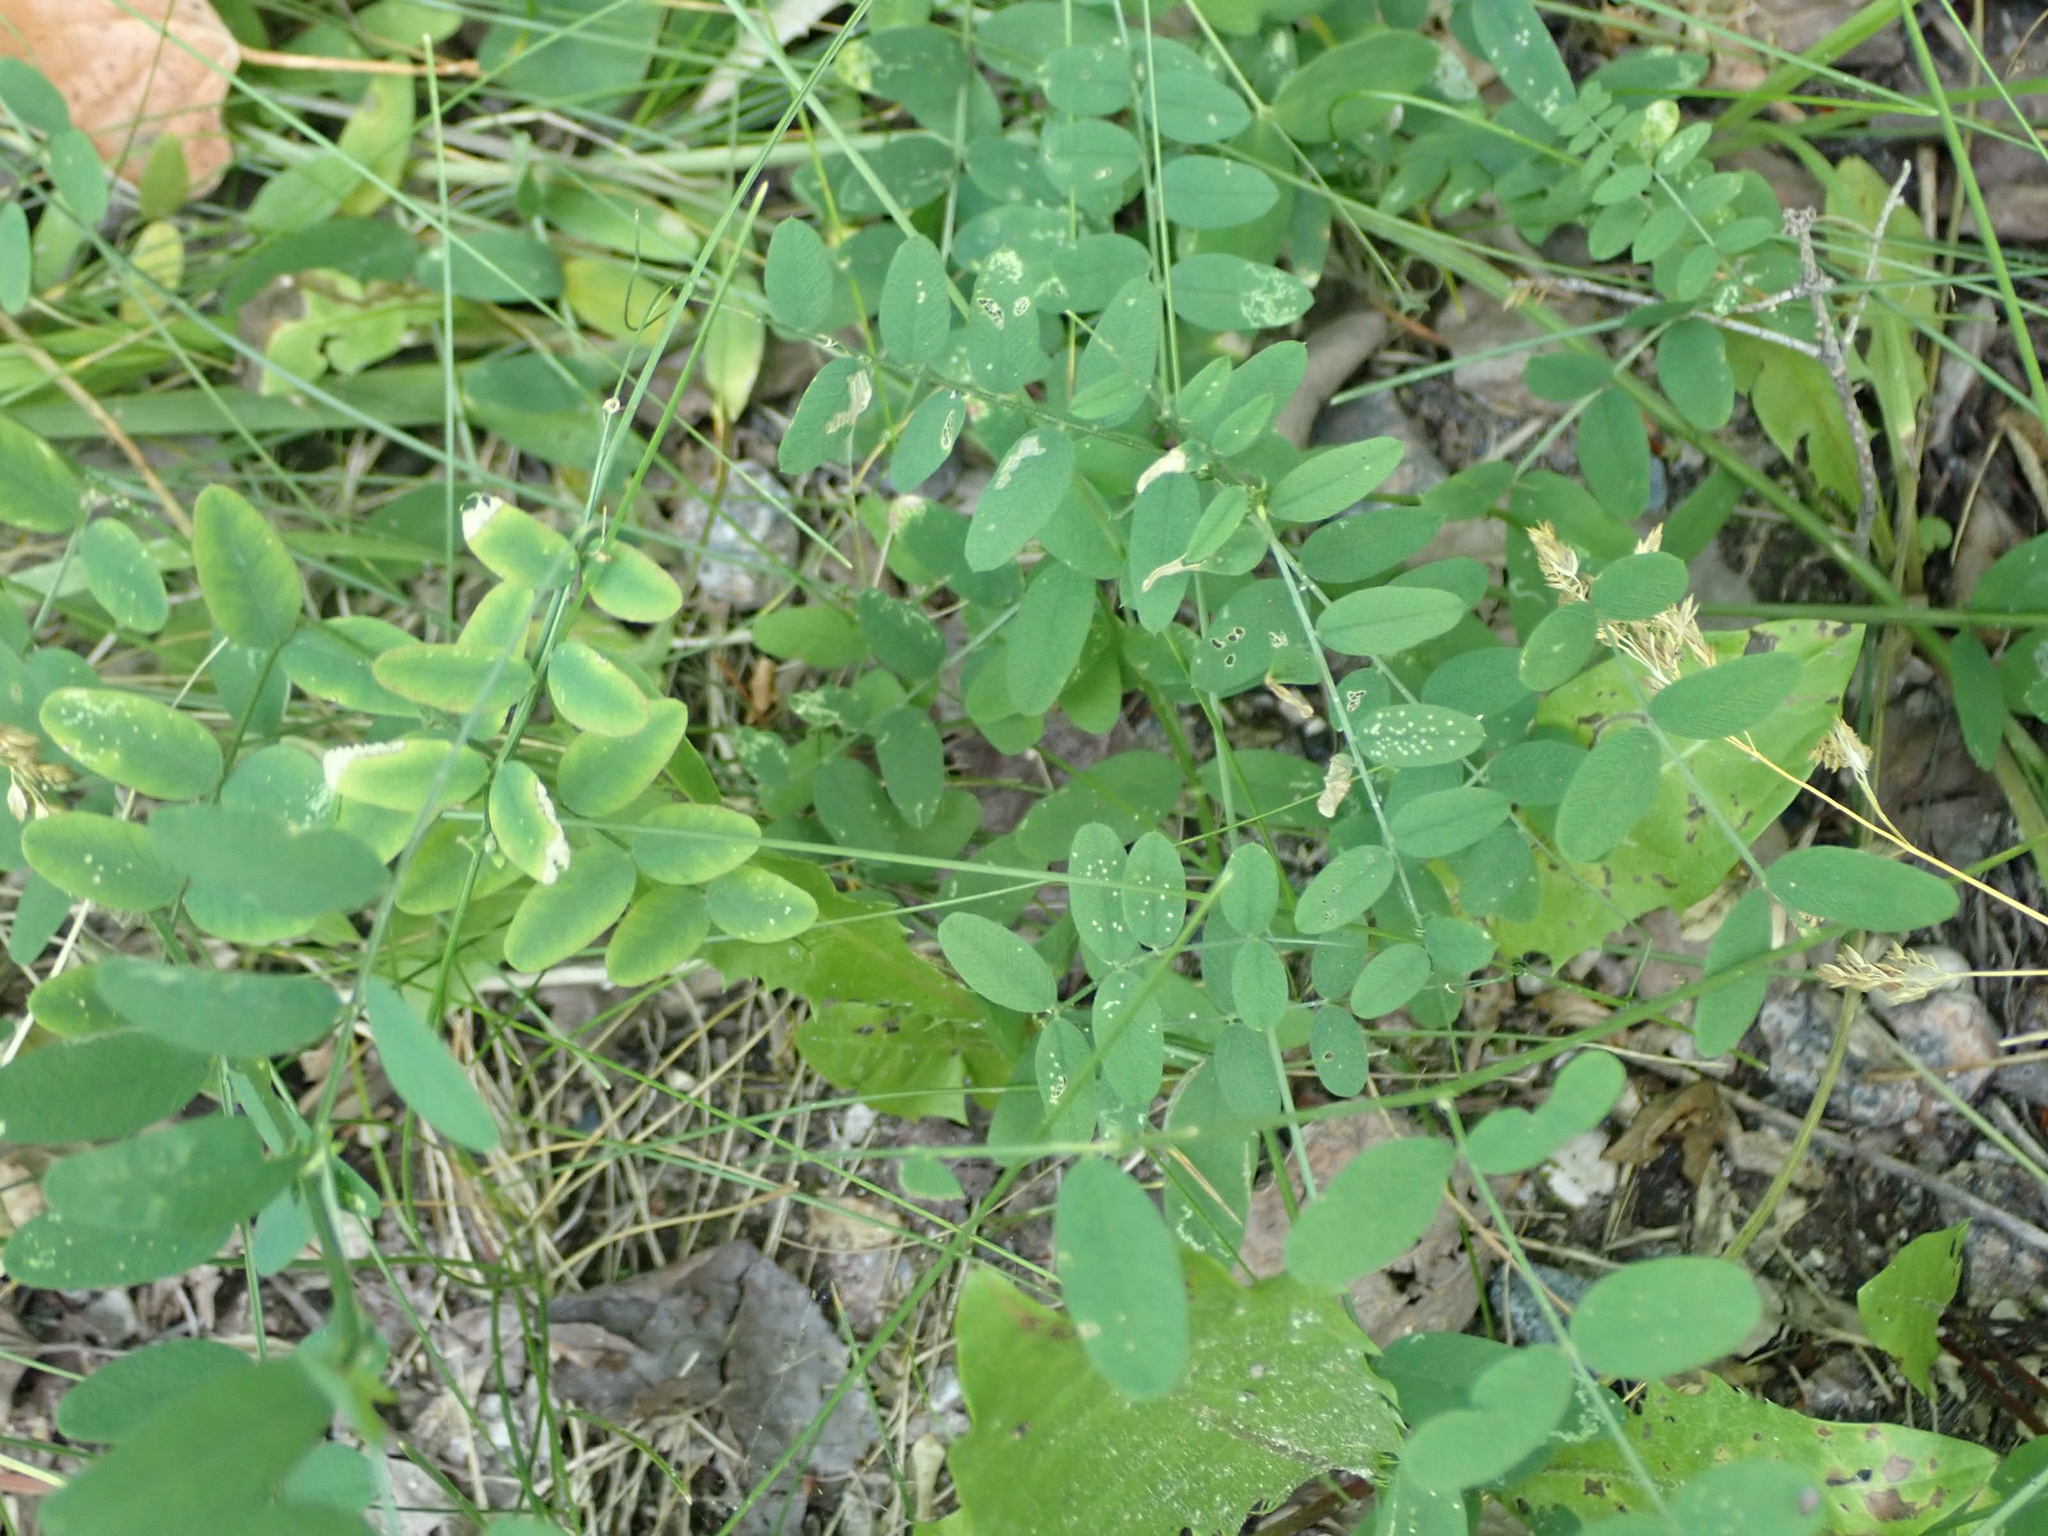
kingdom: Plantae
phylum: Tracheophyta
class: Magnoliopsida
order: Fabales
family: Fabaceae
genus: Vicia
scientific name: Vicia americana
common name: American vetch
